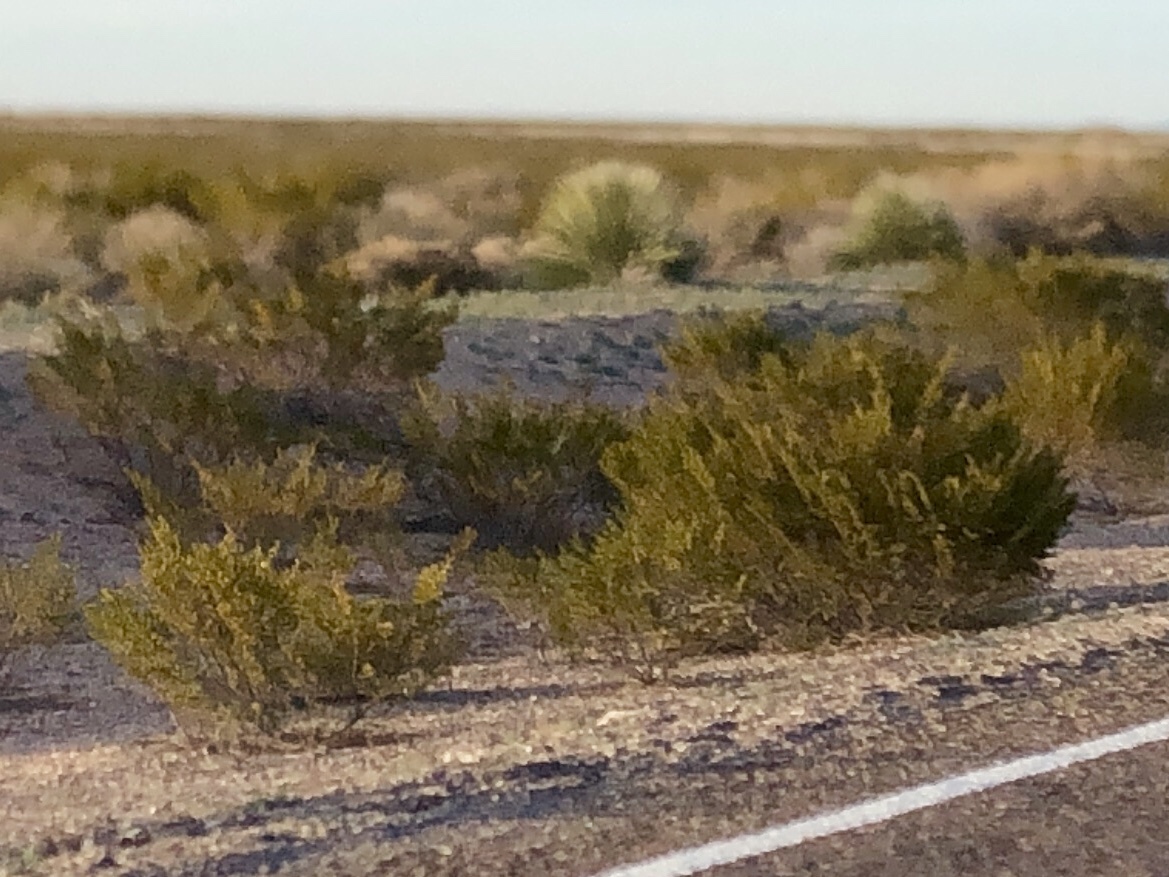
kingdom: Plantae
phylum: Tracheophyta
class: Magnoliopsida
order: Zygophyllales
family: Zygophyllaceae
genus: Larrea
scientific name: Larrea tridentata
